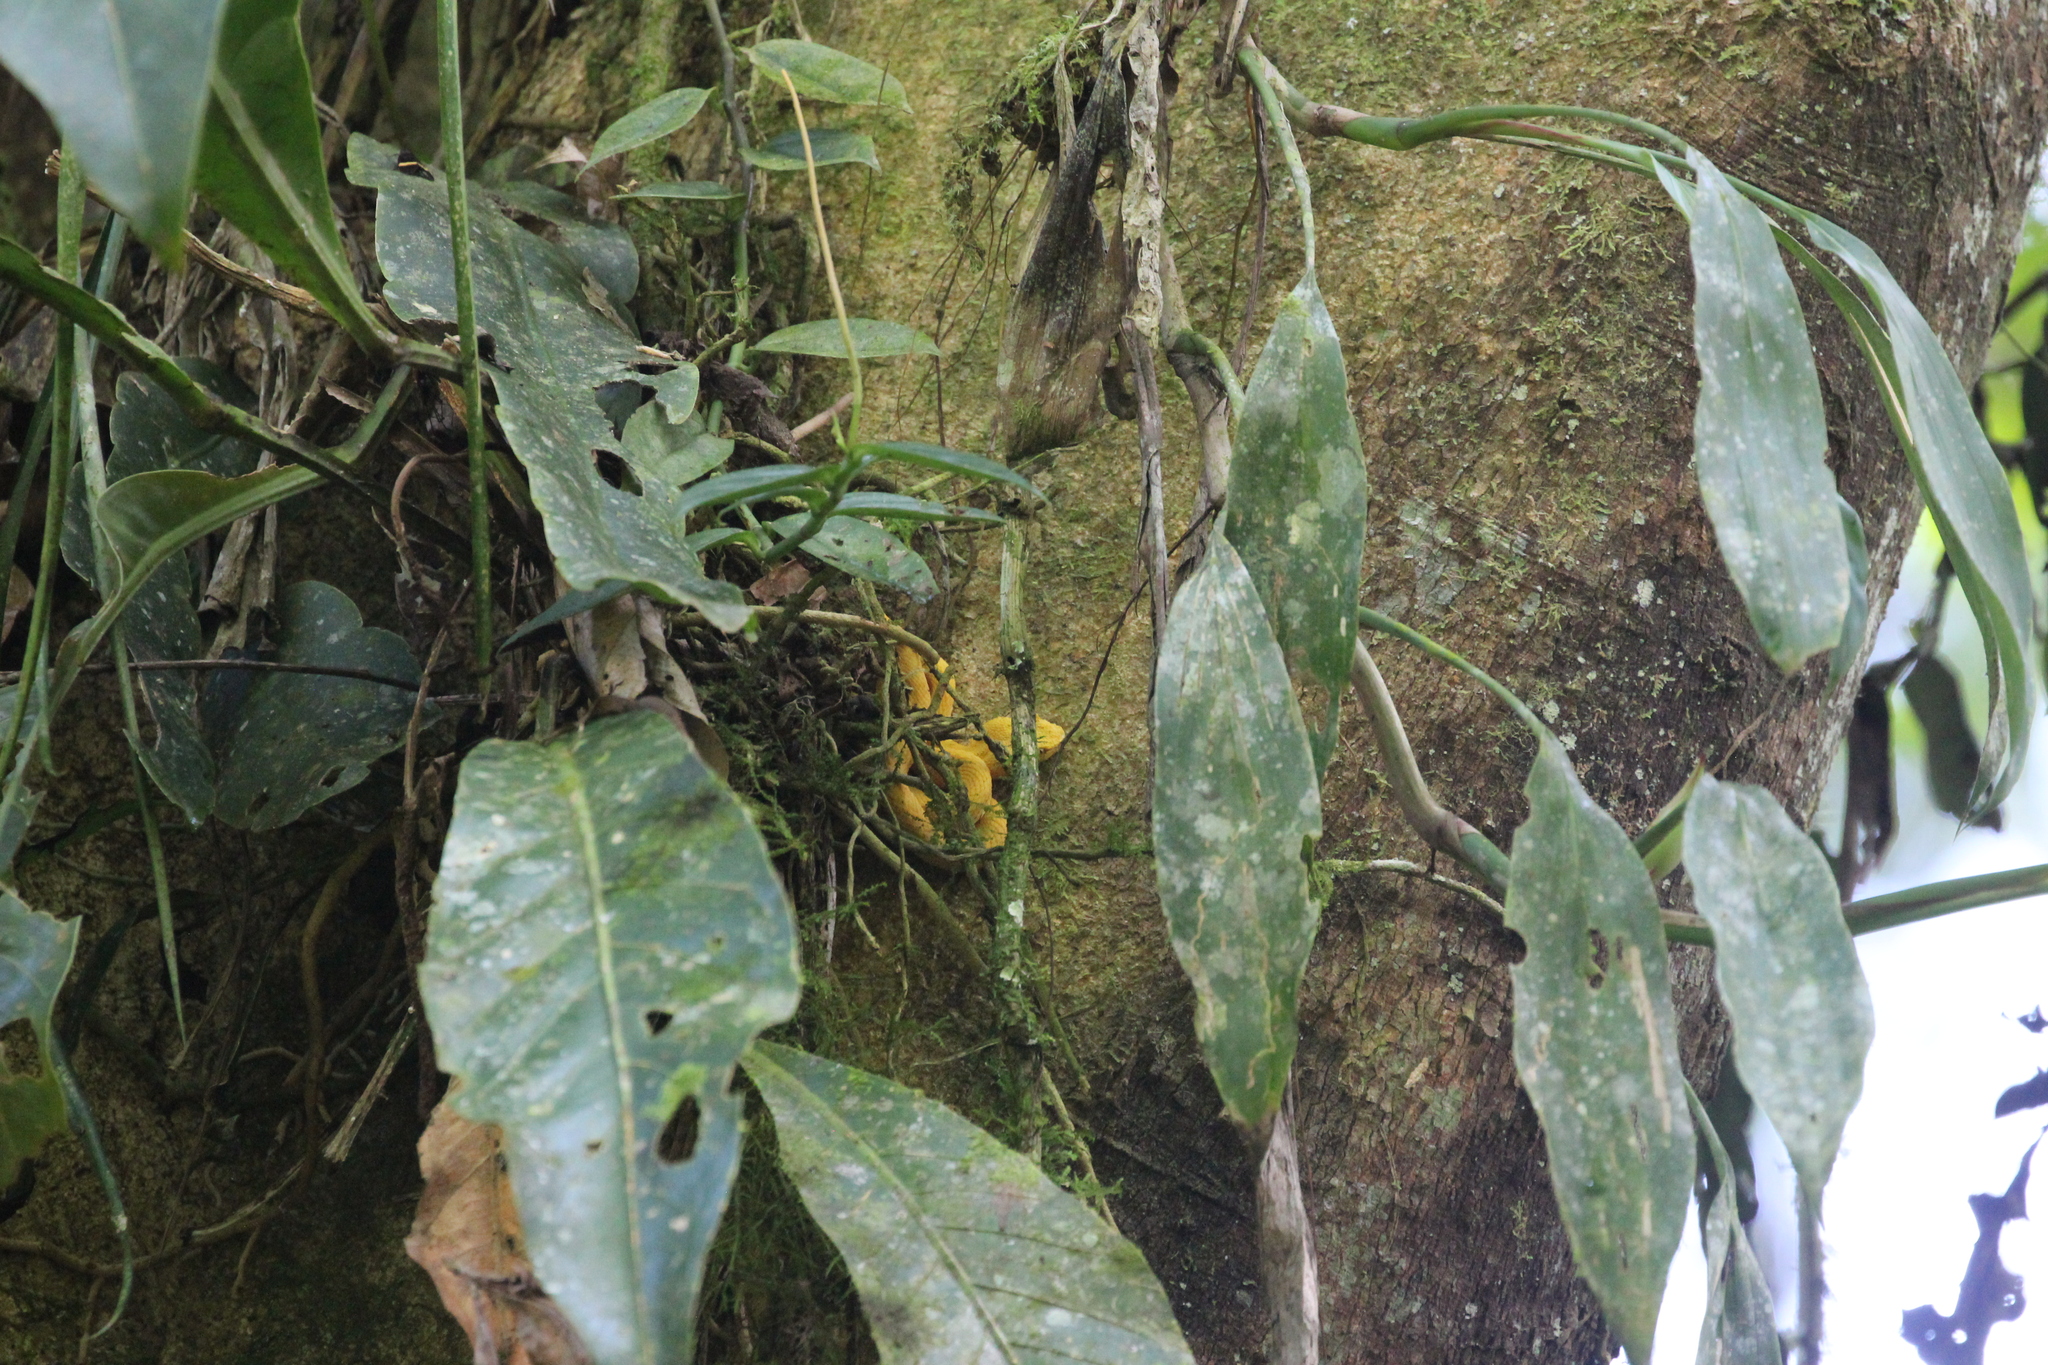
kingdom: Animalia
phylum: Chordata
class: Squamata
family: Viperidae
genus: Bothriechis
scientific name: Bothriechis schlegelii
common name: Eyelash viper
